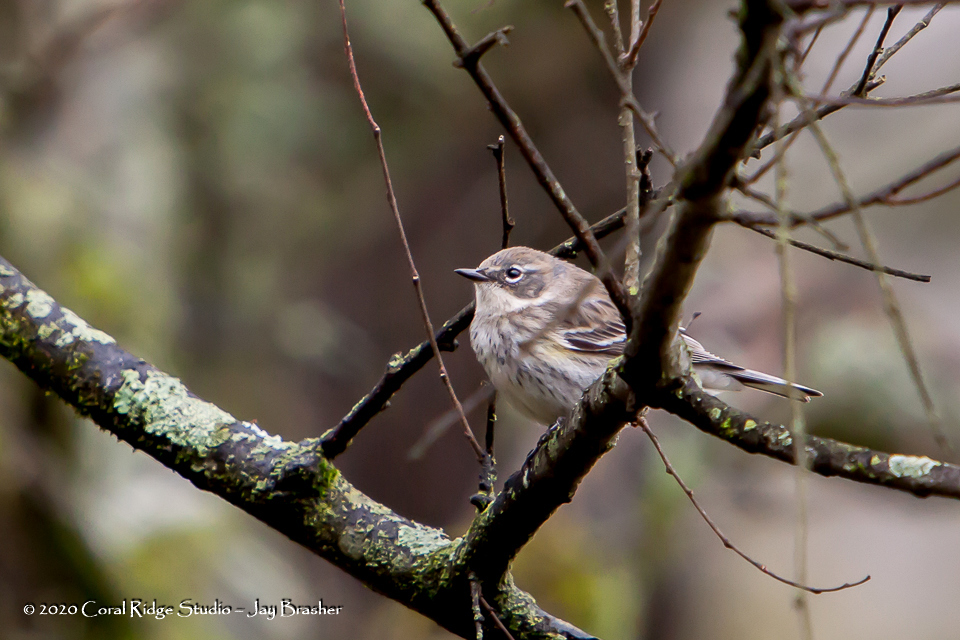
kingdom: Animalia
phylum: Chordata
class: Aves
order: Passeriformes
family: Parulidae
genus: Setophaga
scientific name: Setophaga coronata
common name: Myrtle warbler
